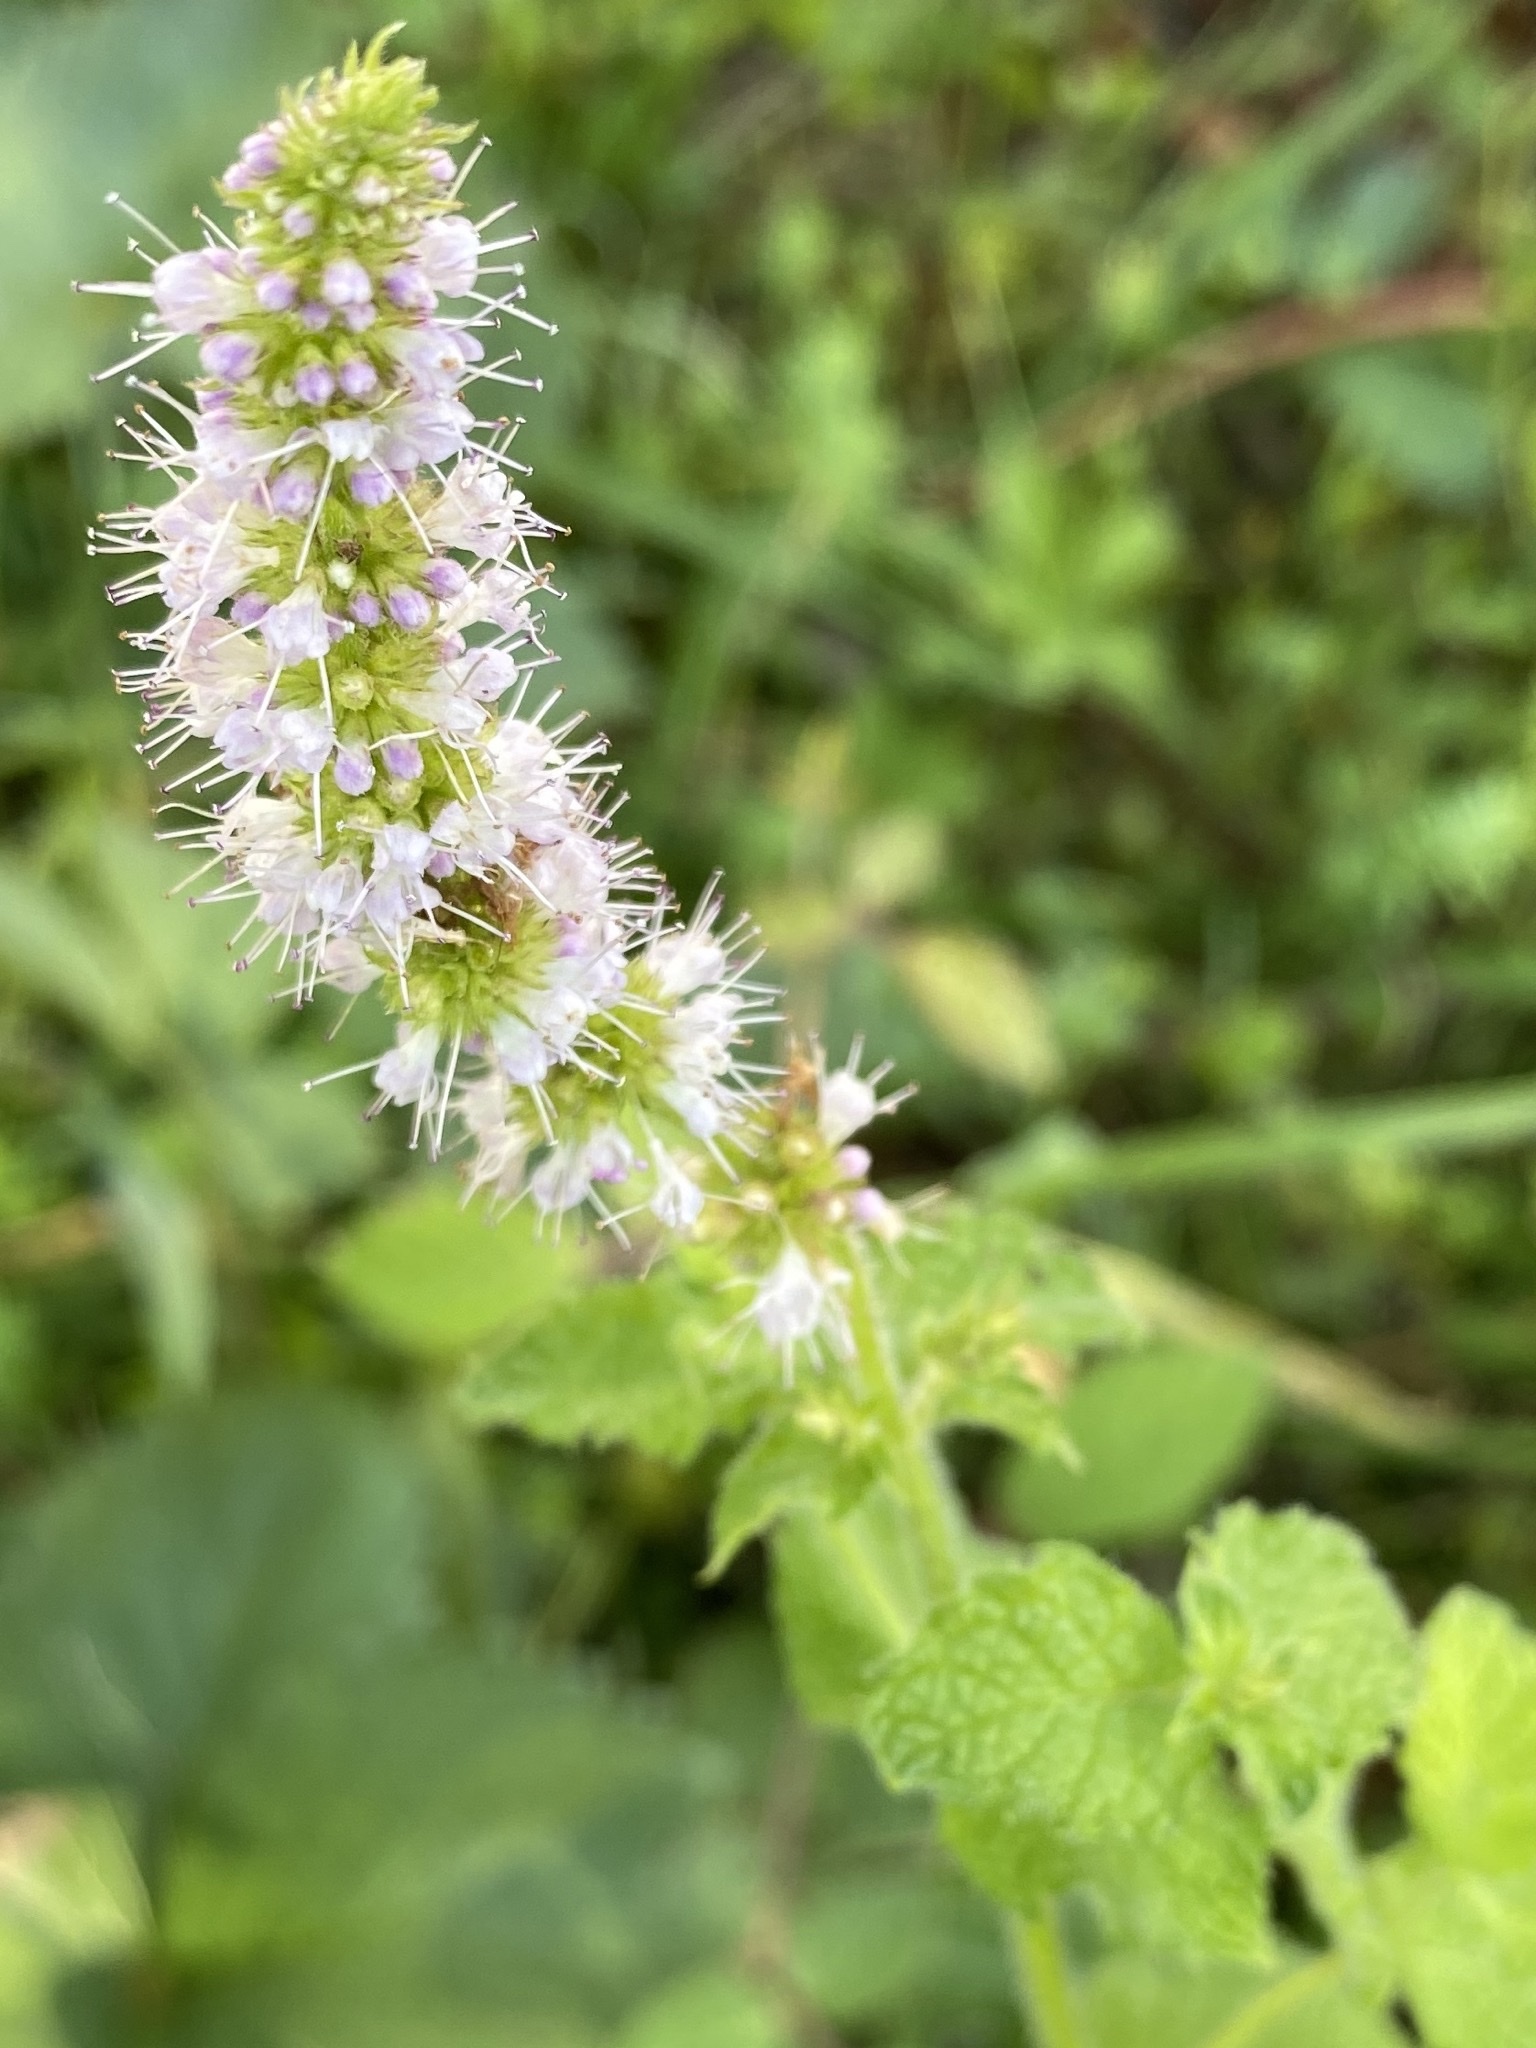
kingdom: Plantae
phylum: Tracheophyta
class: Magnoliopsida
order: Lamiales
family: Lamiaceae
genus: Mentha
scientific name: Mentha suaveolens
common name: Apple mint
